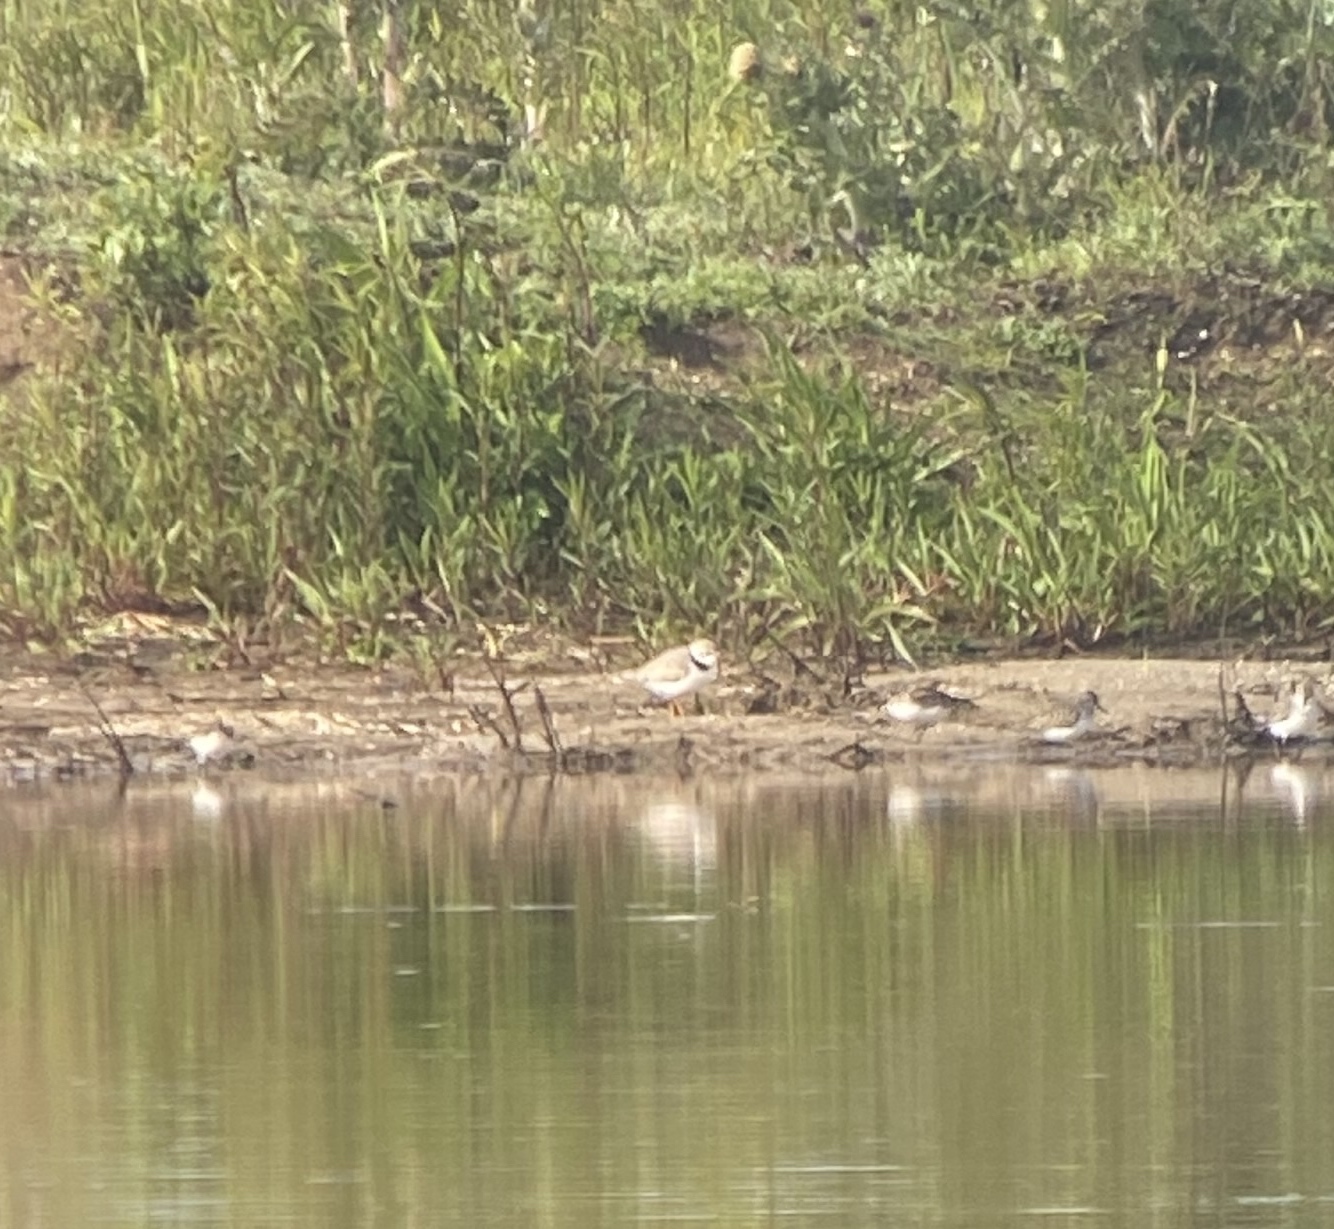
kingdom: Animalia
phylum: Chordata
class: Aves
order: Charadriiformes
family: Charadriidae
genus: Charadrius
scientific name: Charadrius melodus
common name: Piping plover
